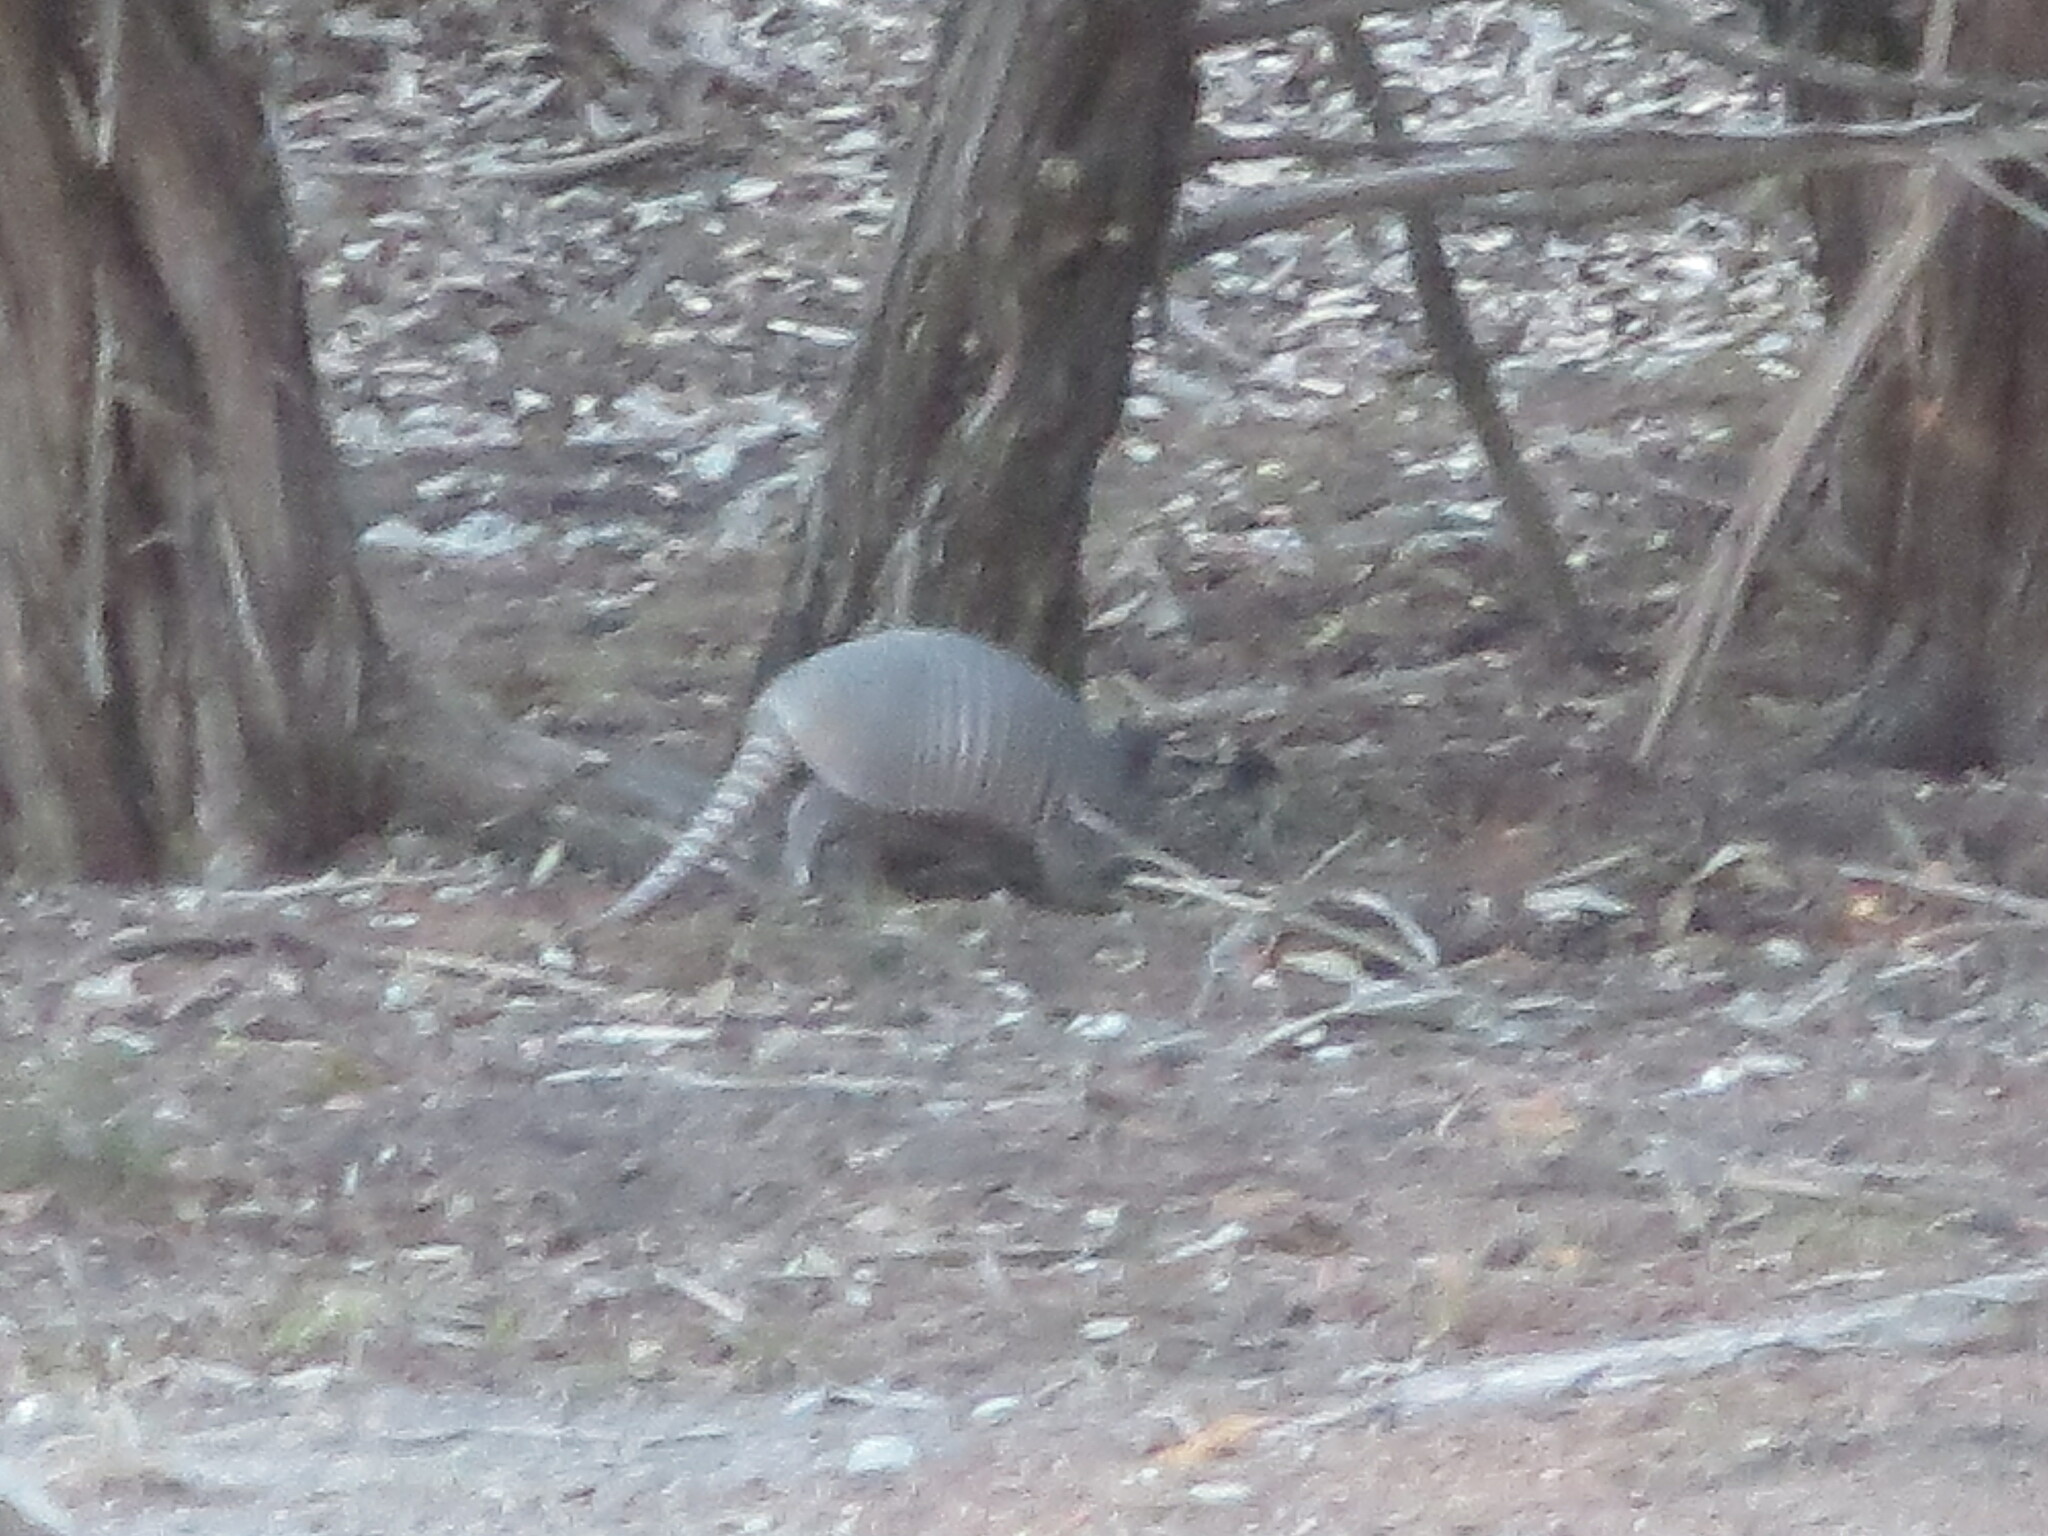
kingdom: Animalia
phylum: Chordata
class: Mammalia
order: Cingulata
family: Dasypodidae
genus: Dasypus
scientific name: Dasypus novemcinctus
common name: Nine-banded armadillo
